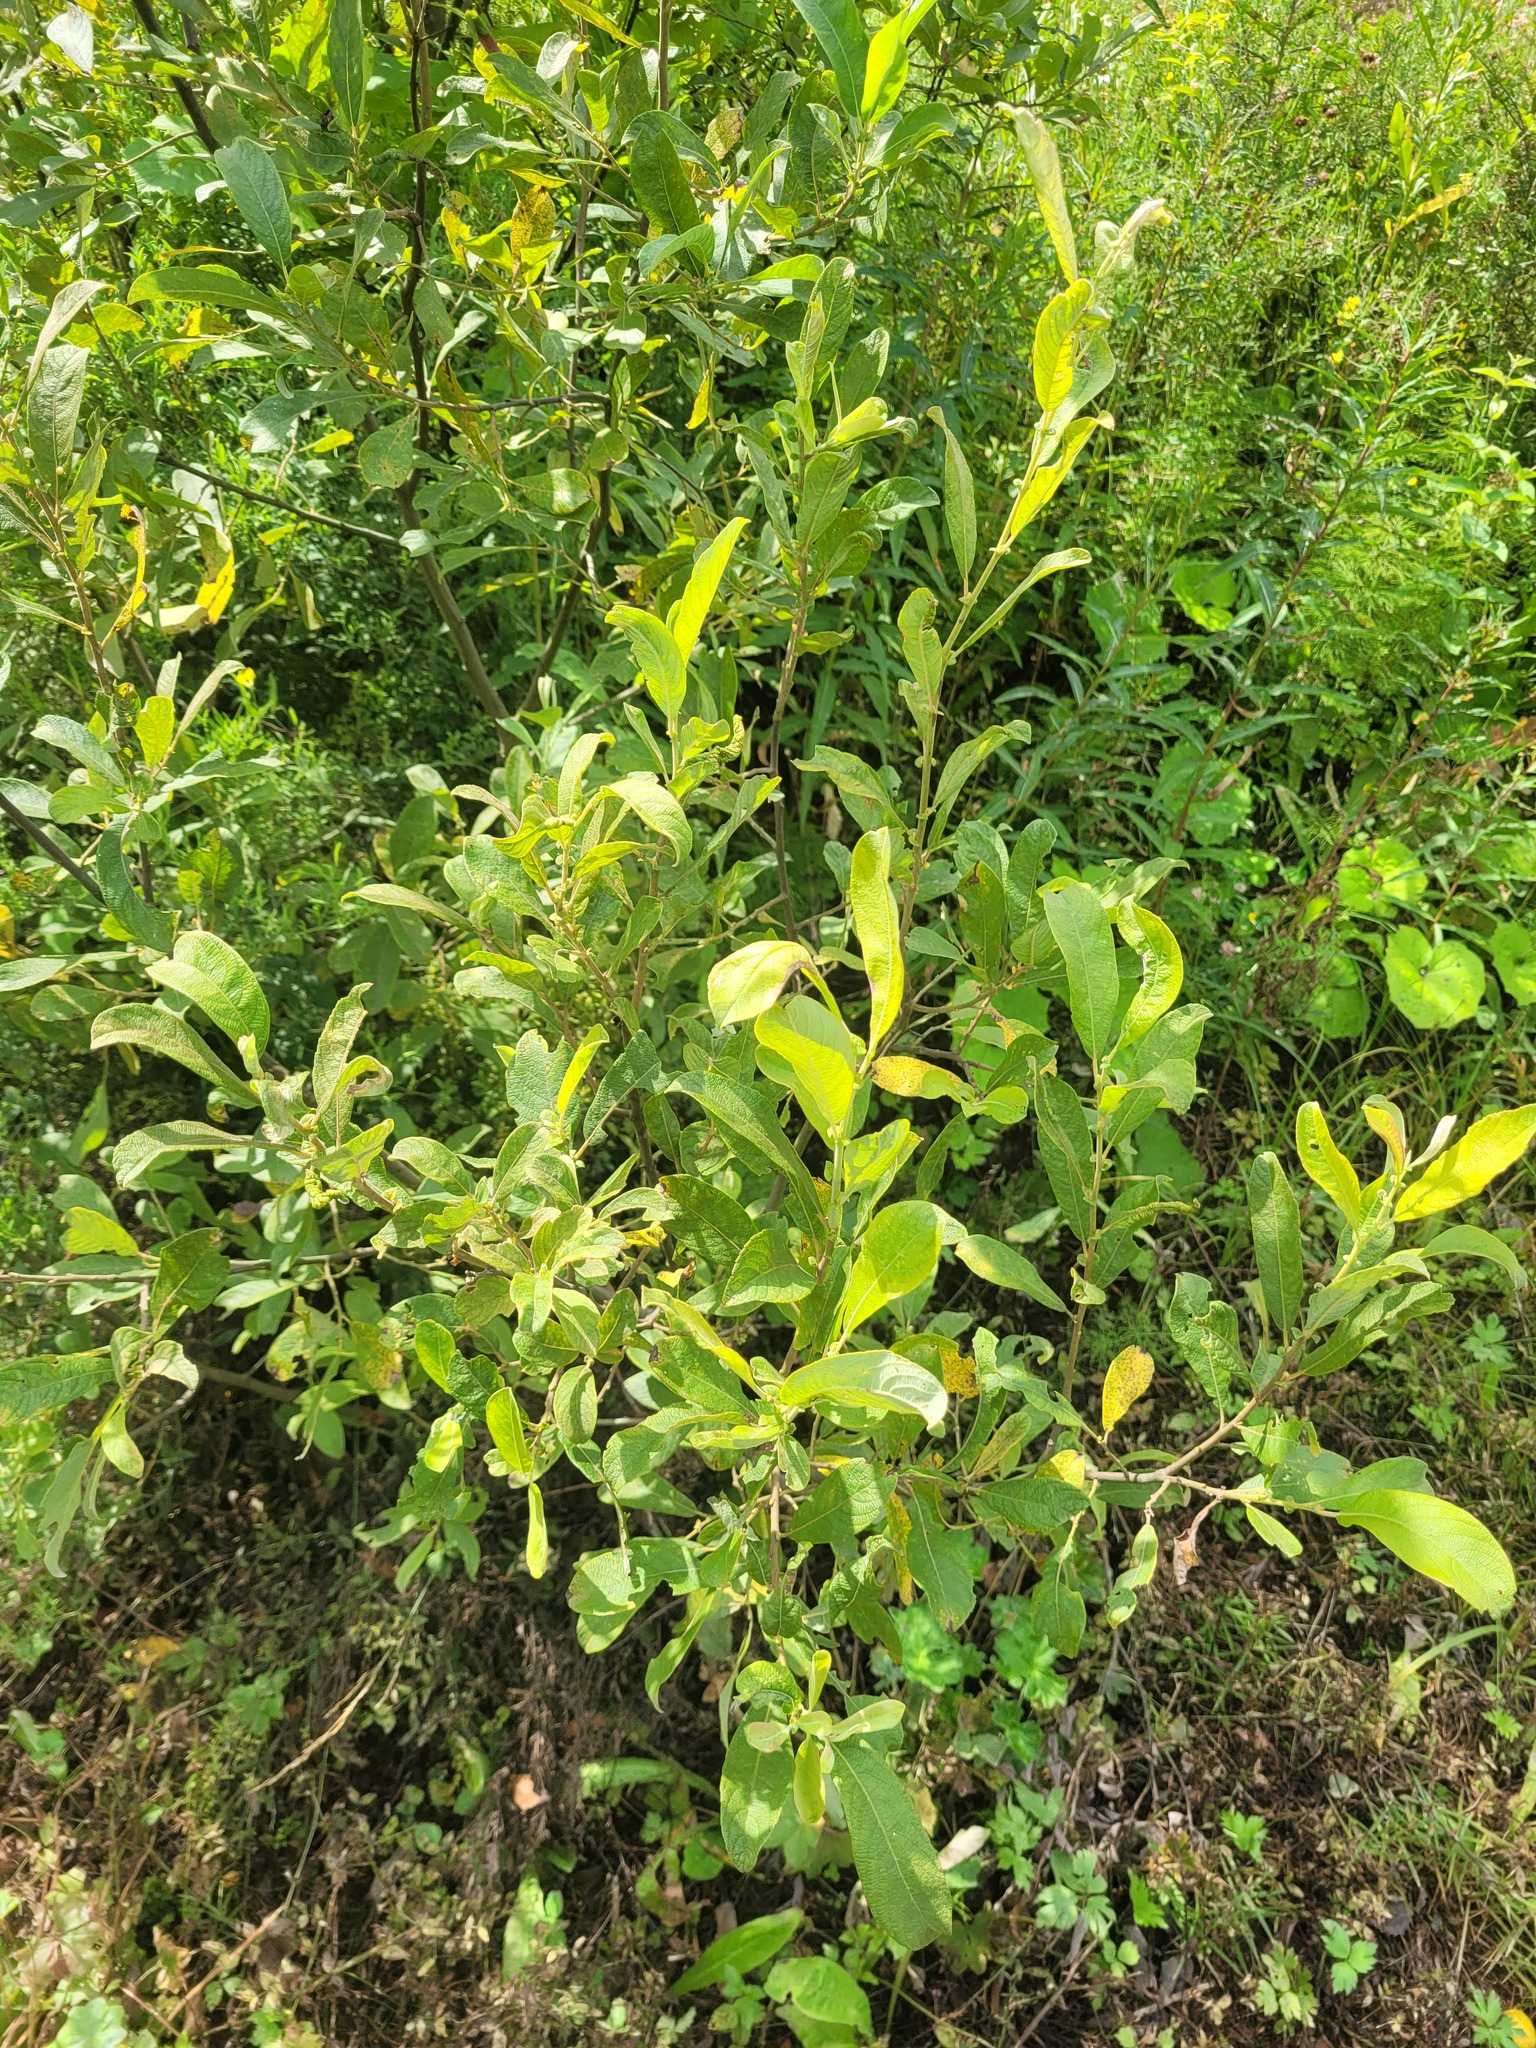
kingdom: Plantae
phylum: Tracheophyta
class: Magnoliopsida
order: Malpighiales
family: Salicaceae
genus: Salix
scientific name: Salix cinerea
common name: Common sallow
